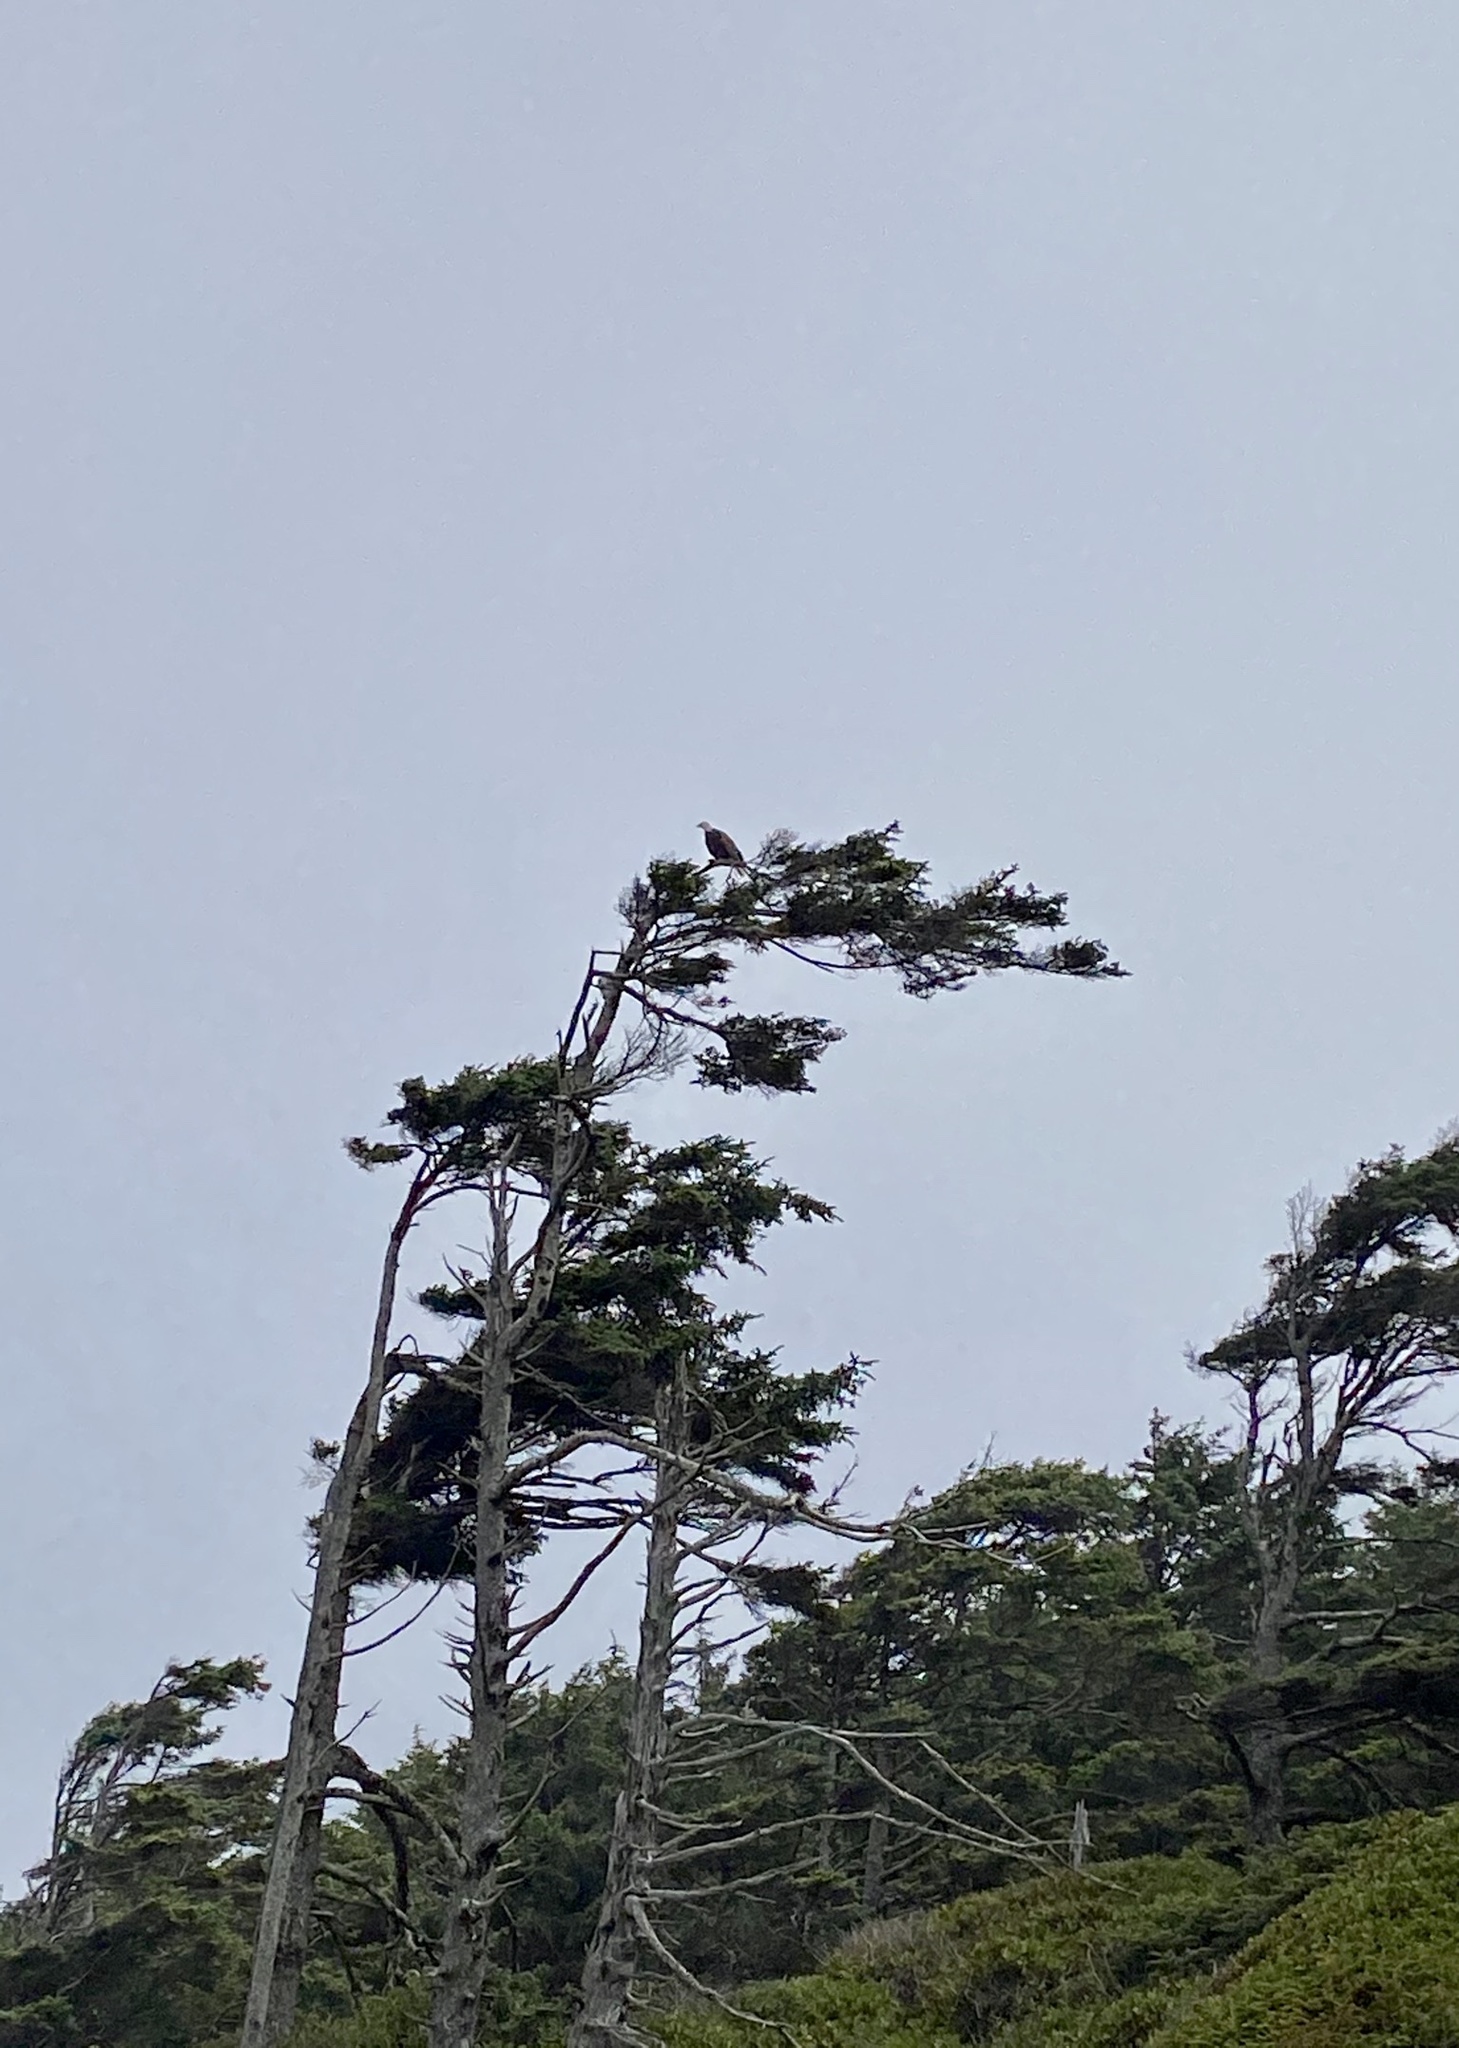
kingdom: Animalia
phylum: Chordata
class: Aves
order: Accipitriformes
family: Accipitridae
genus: Haliaeetus
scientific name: Haliaeetus leucocephalus
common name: Bald eagle
